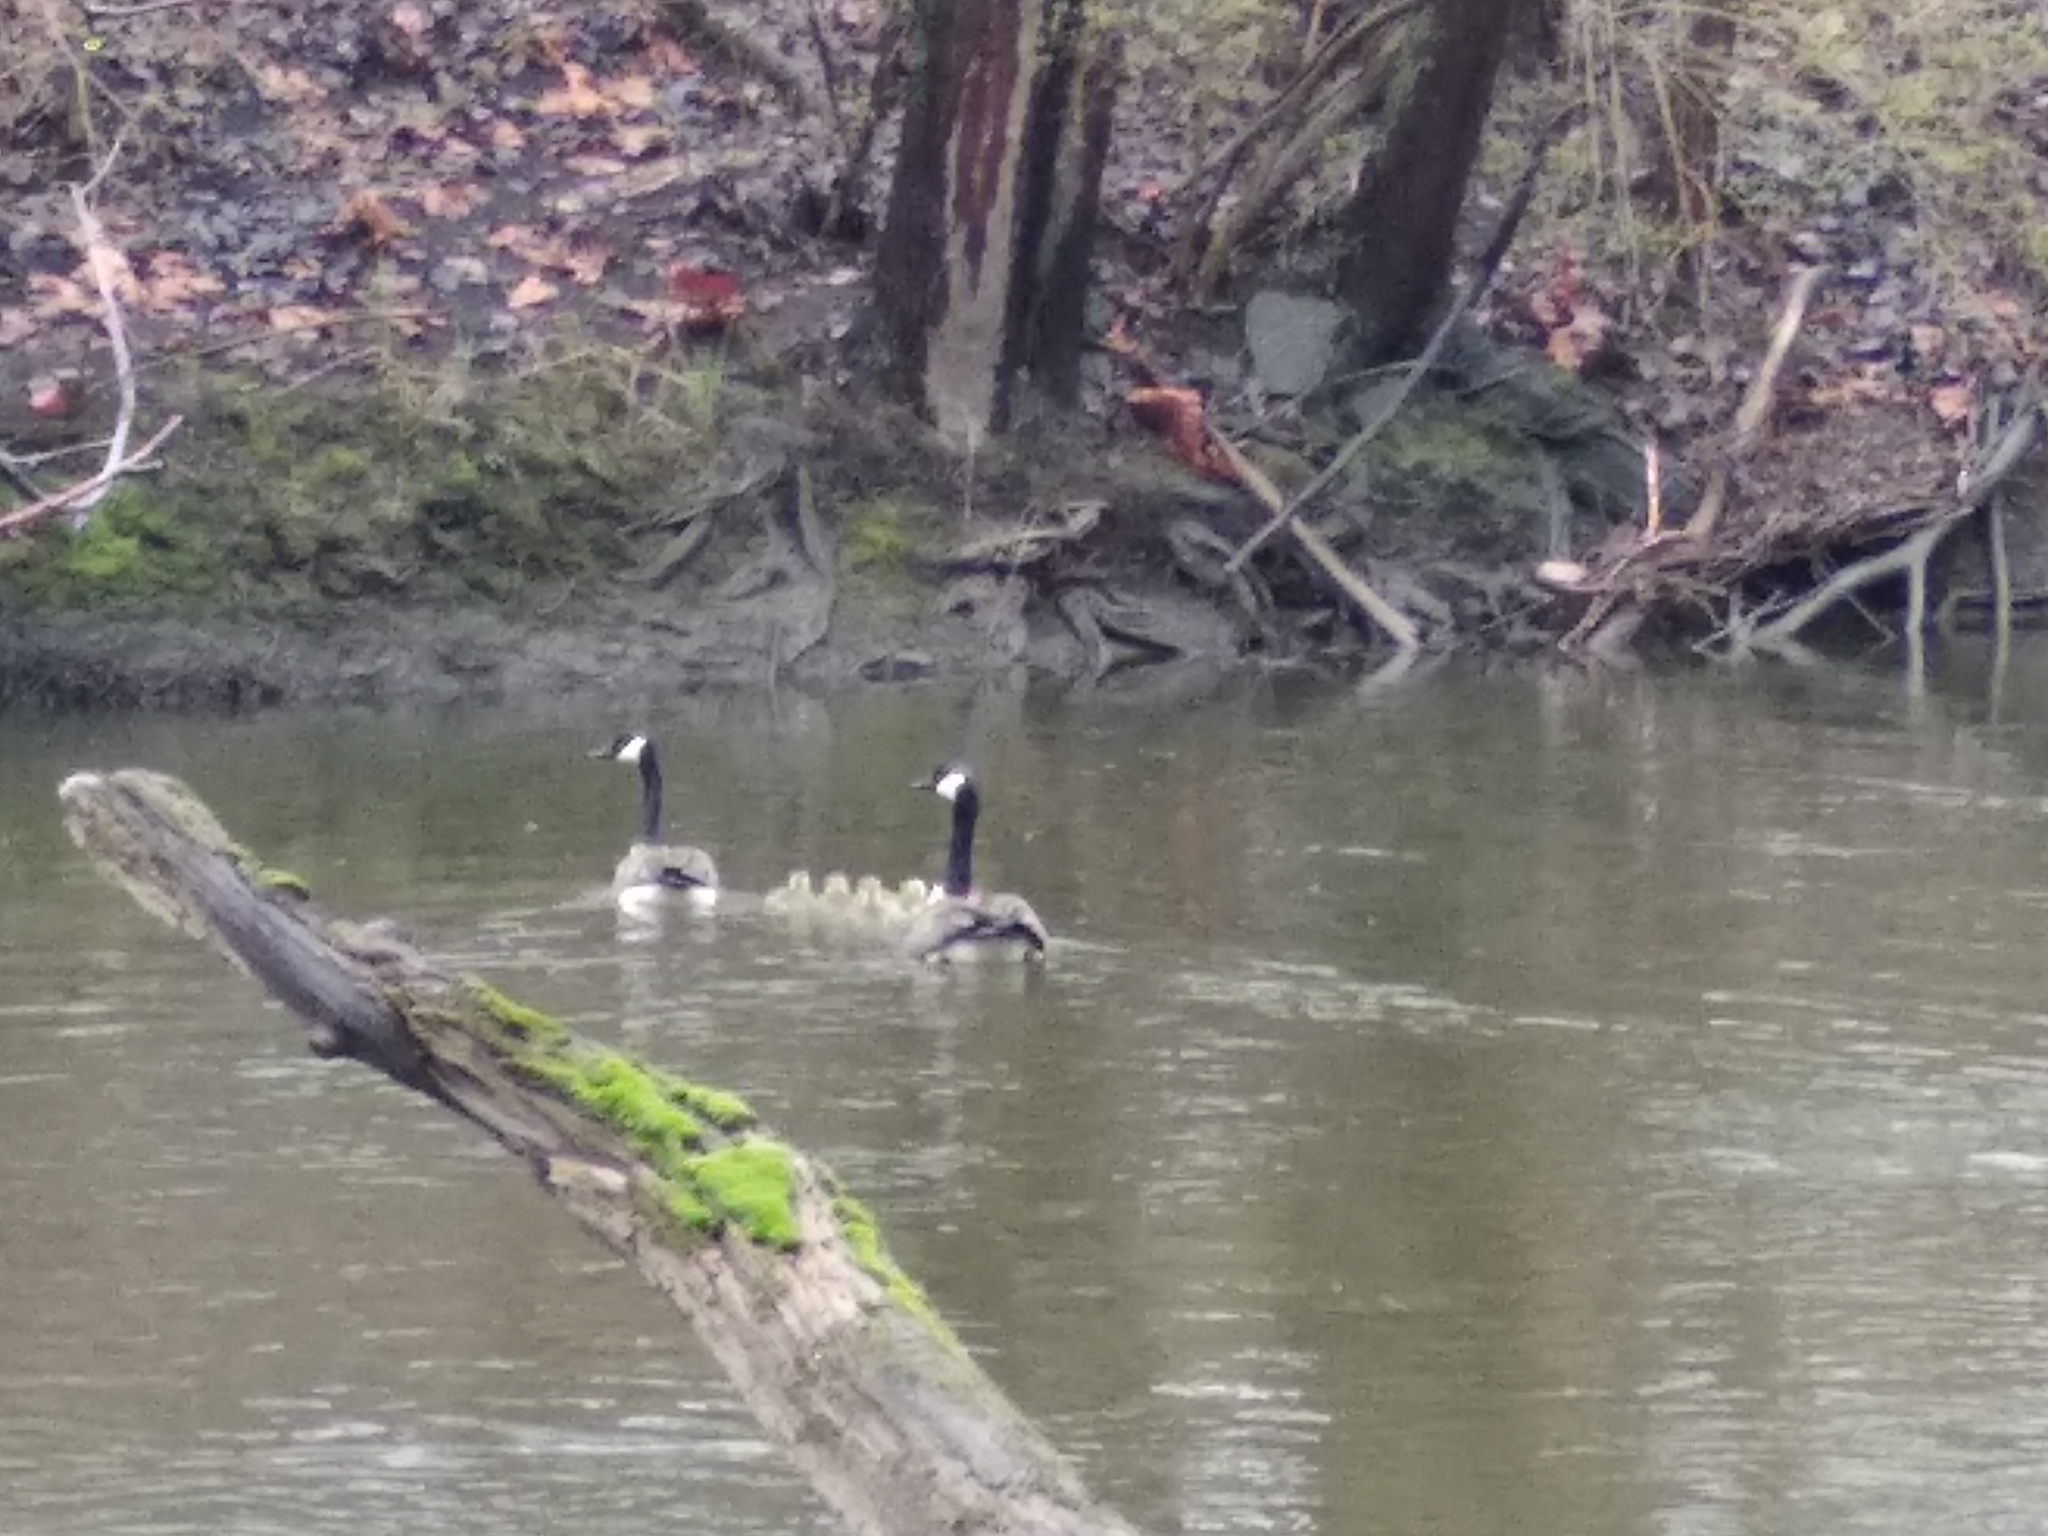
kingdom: Animalia
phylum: Chordata
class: Aves
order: Anseriformes
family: Anatidae
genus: Branta
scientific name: Branta canadensis
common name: Canada goose
